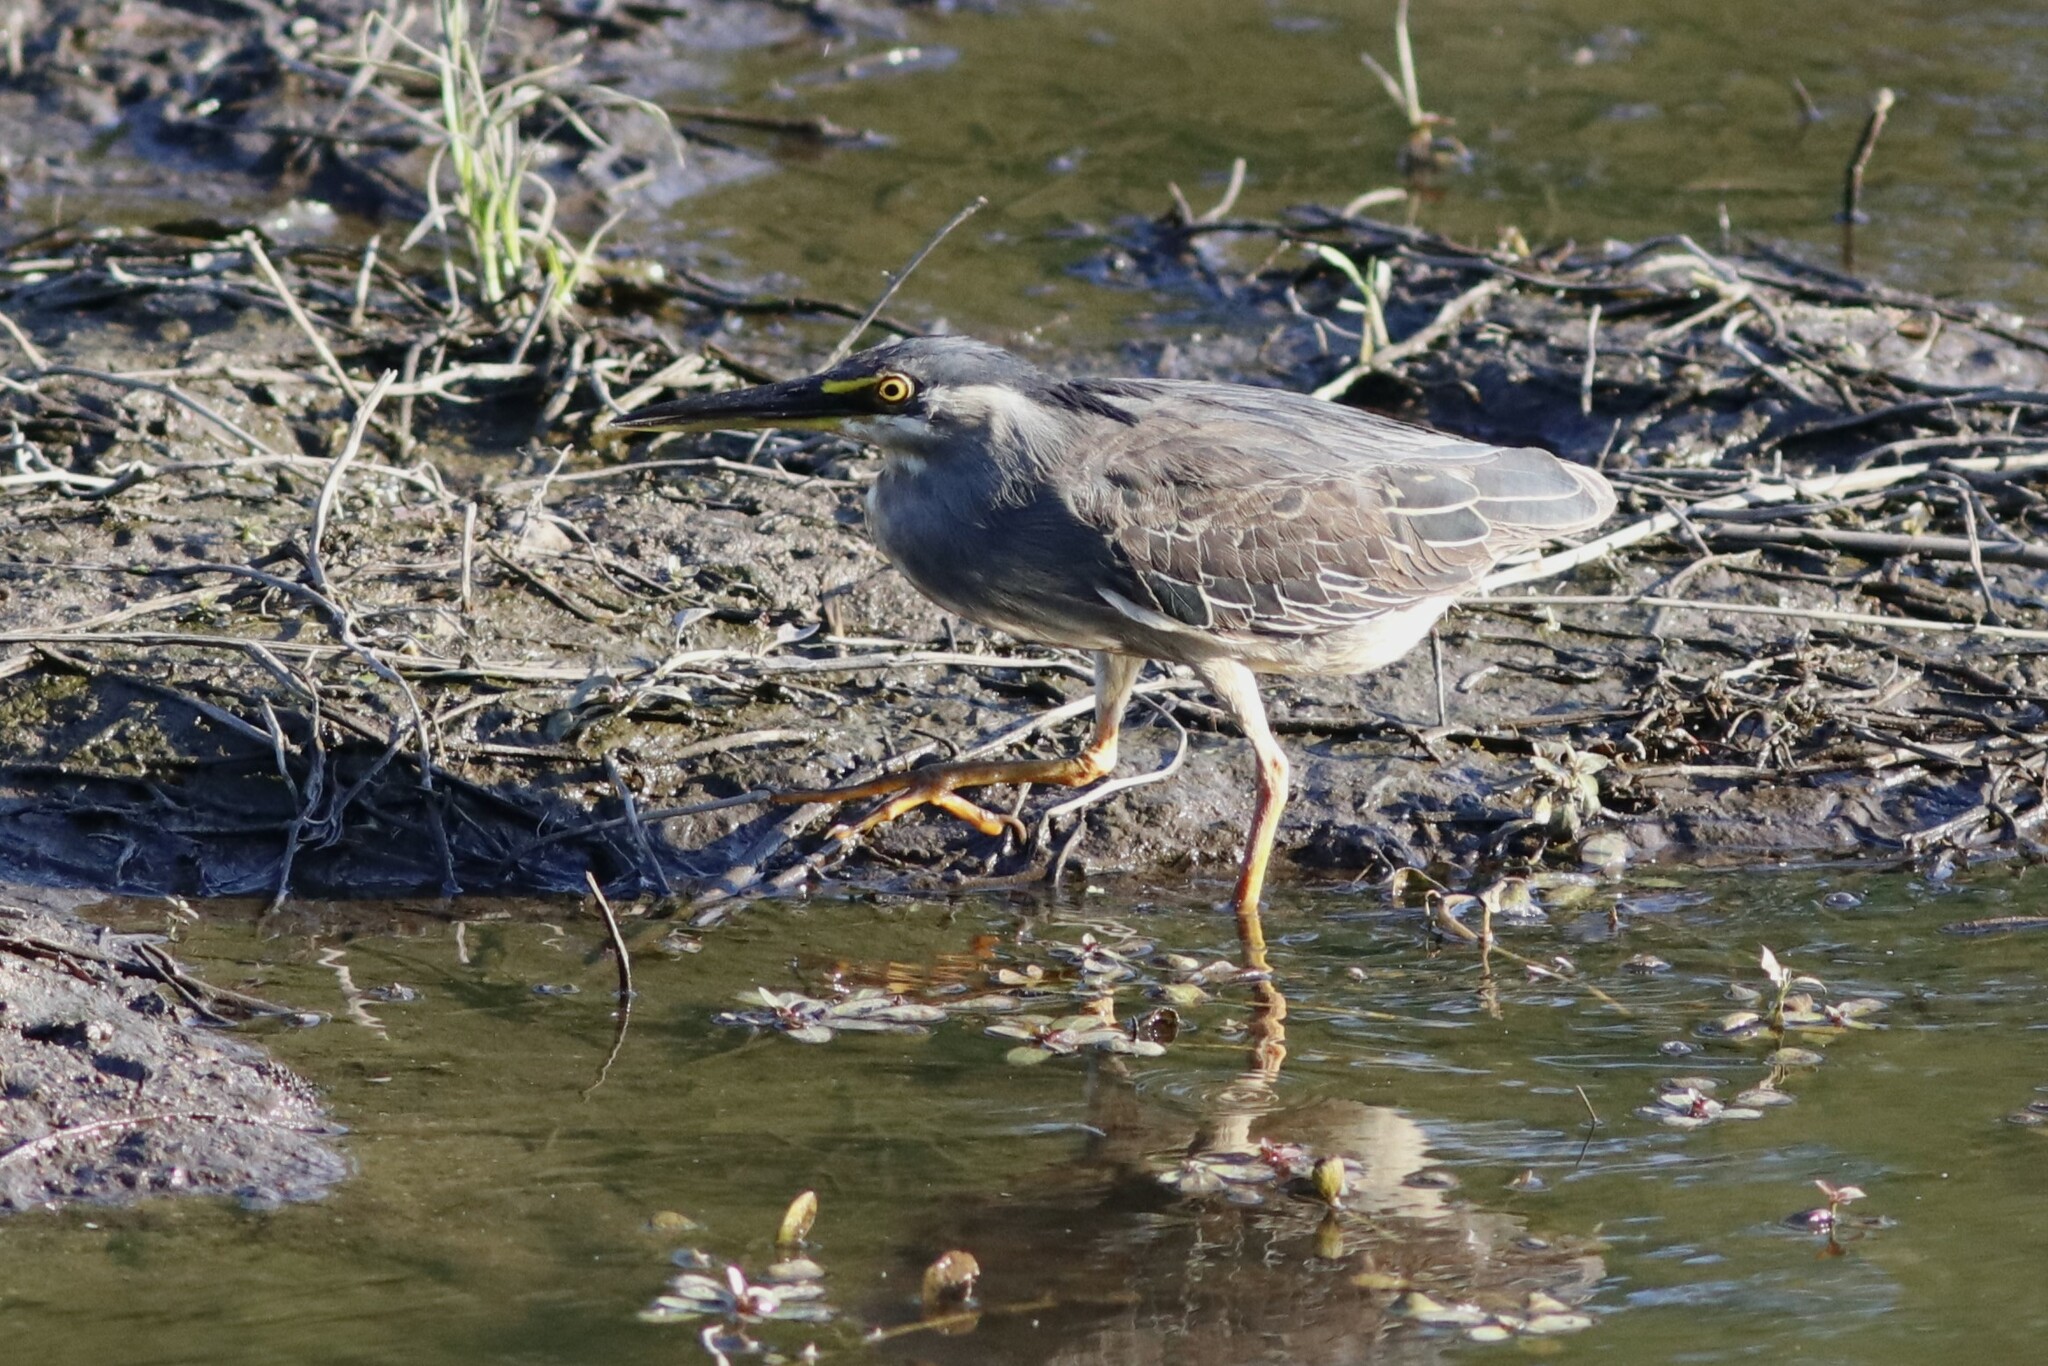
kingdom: Animalia
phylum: Chordata
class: Aves
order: Pelecaniformes
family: Ardeidae
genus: Butorides
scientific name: Butorides striata
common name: Striated heron
